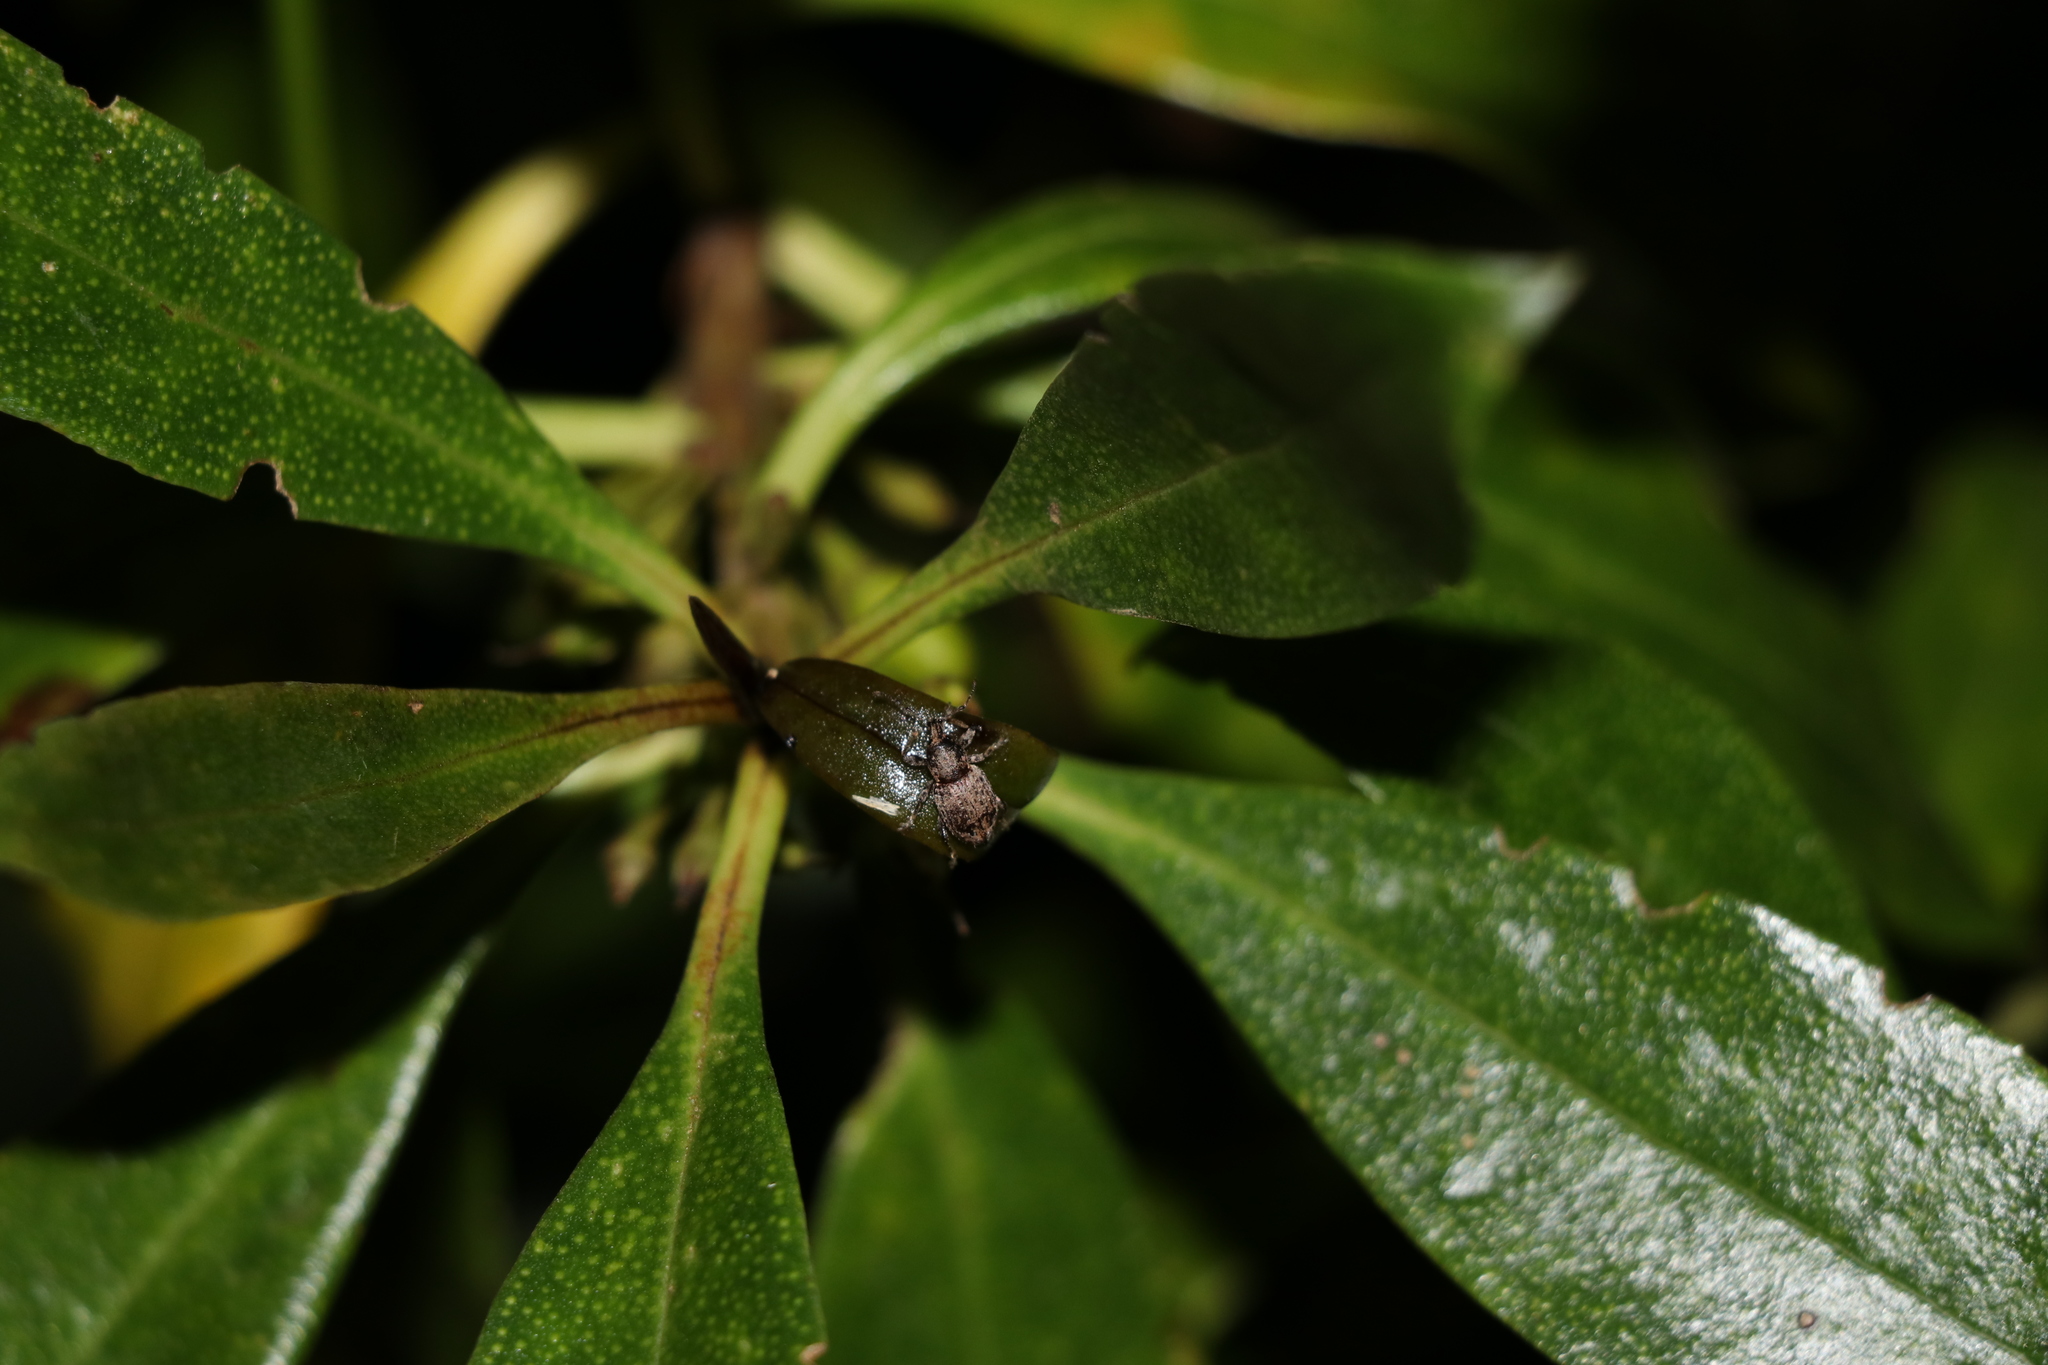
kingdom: Animalia
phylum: Arthropoda
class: Insecta
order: Coleoptera
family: Curculionidae
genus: Chalepistes
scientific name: Chalepistes compressus
